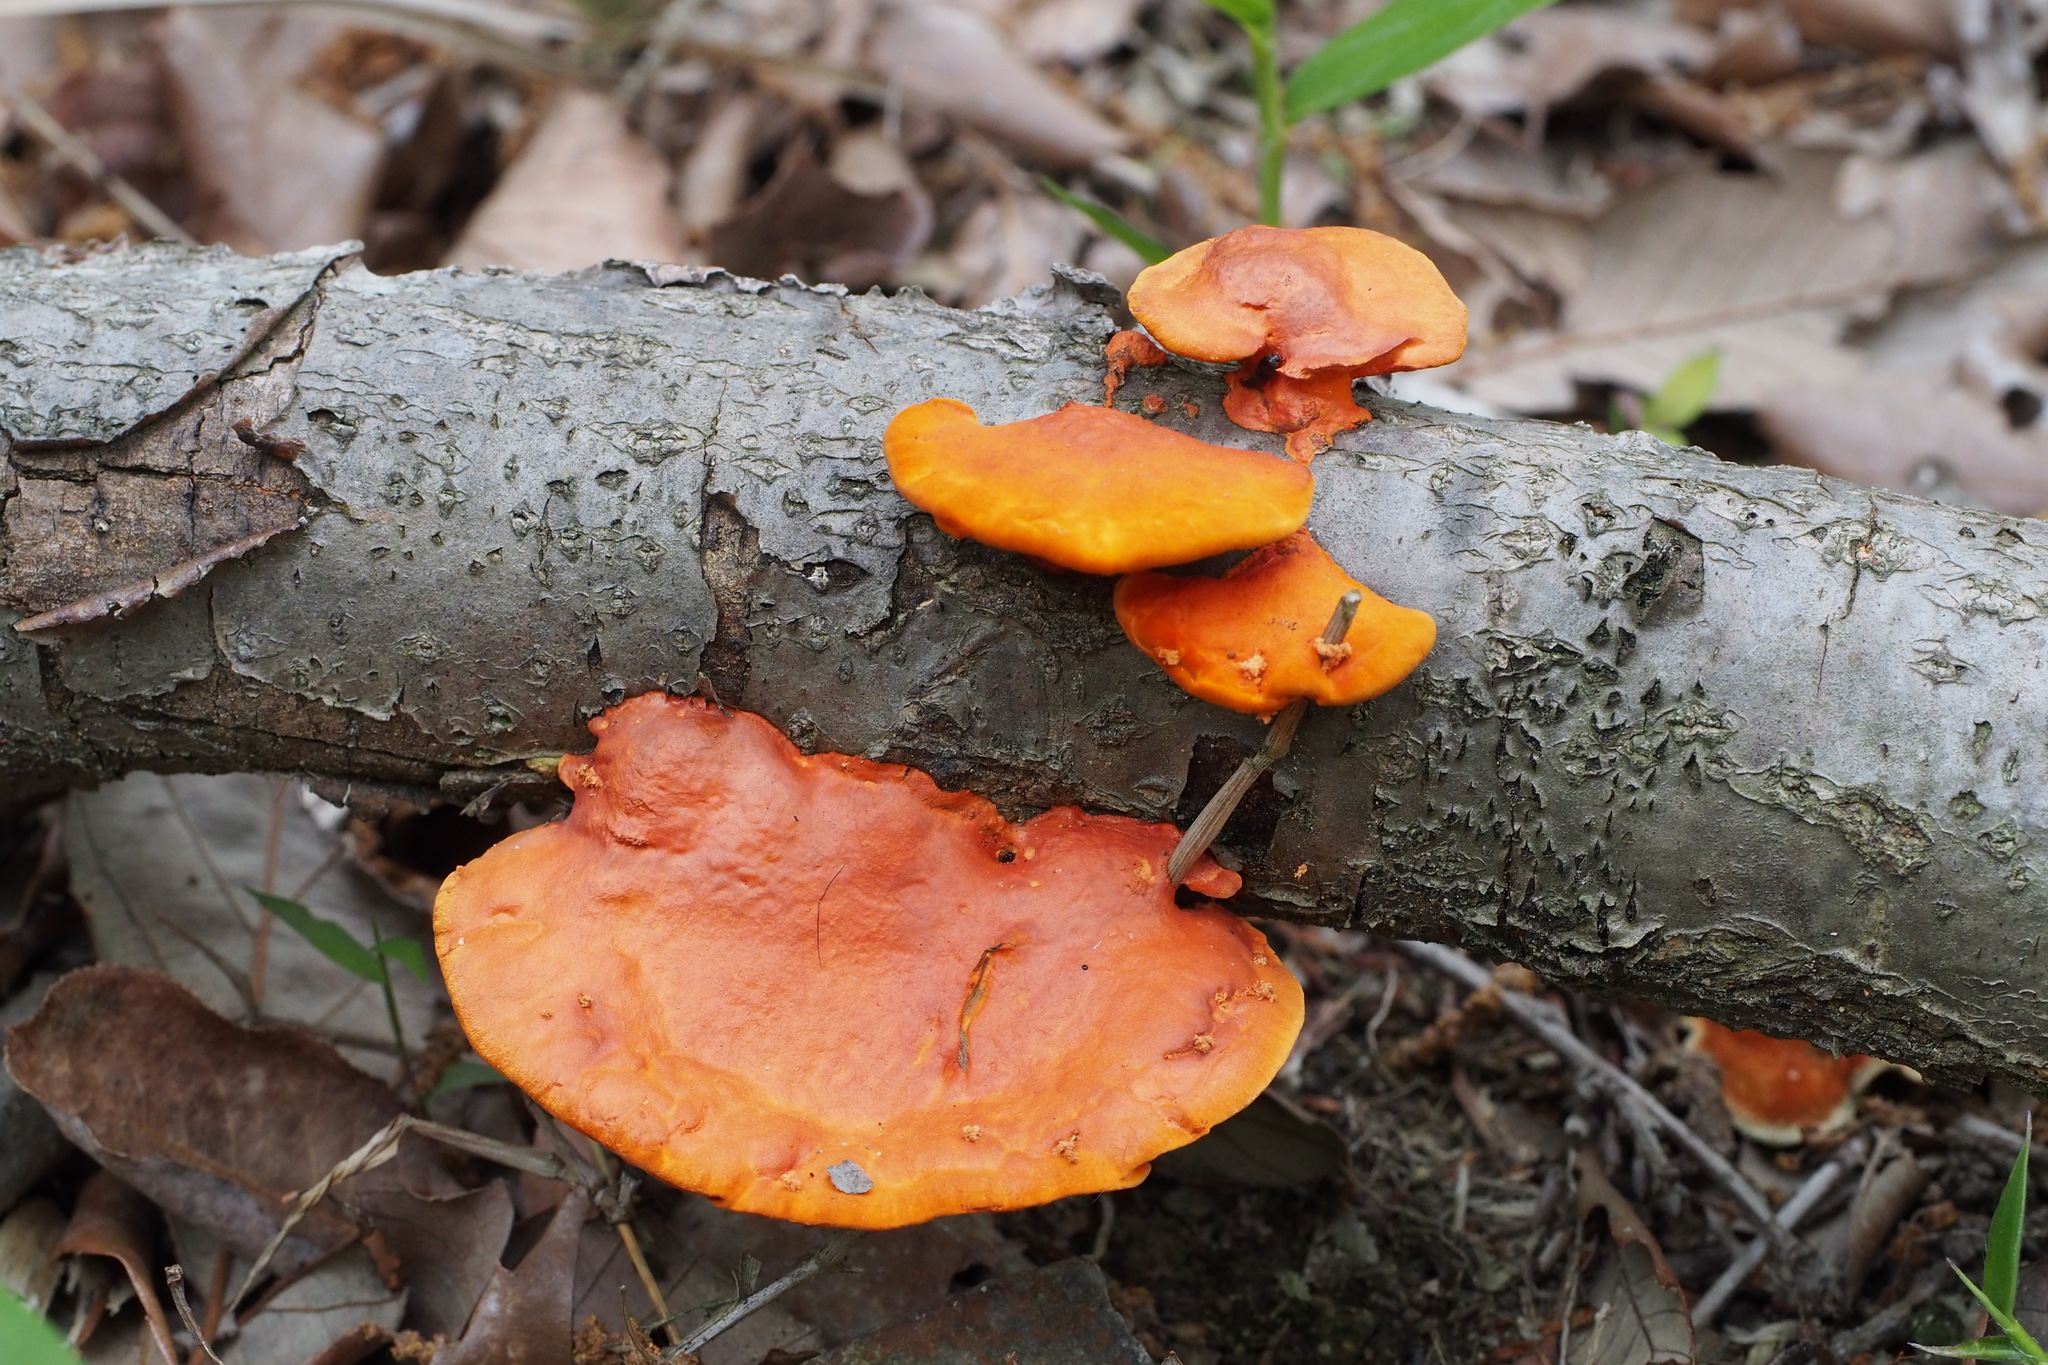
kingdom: Fungi
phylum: Basidiomycota
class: Agaricomycetes
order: Polyporales
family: Polyporaceae
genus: Trametes
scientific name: Trametes coccinea
